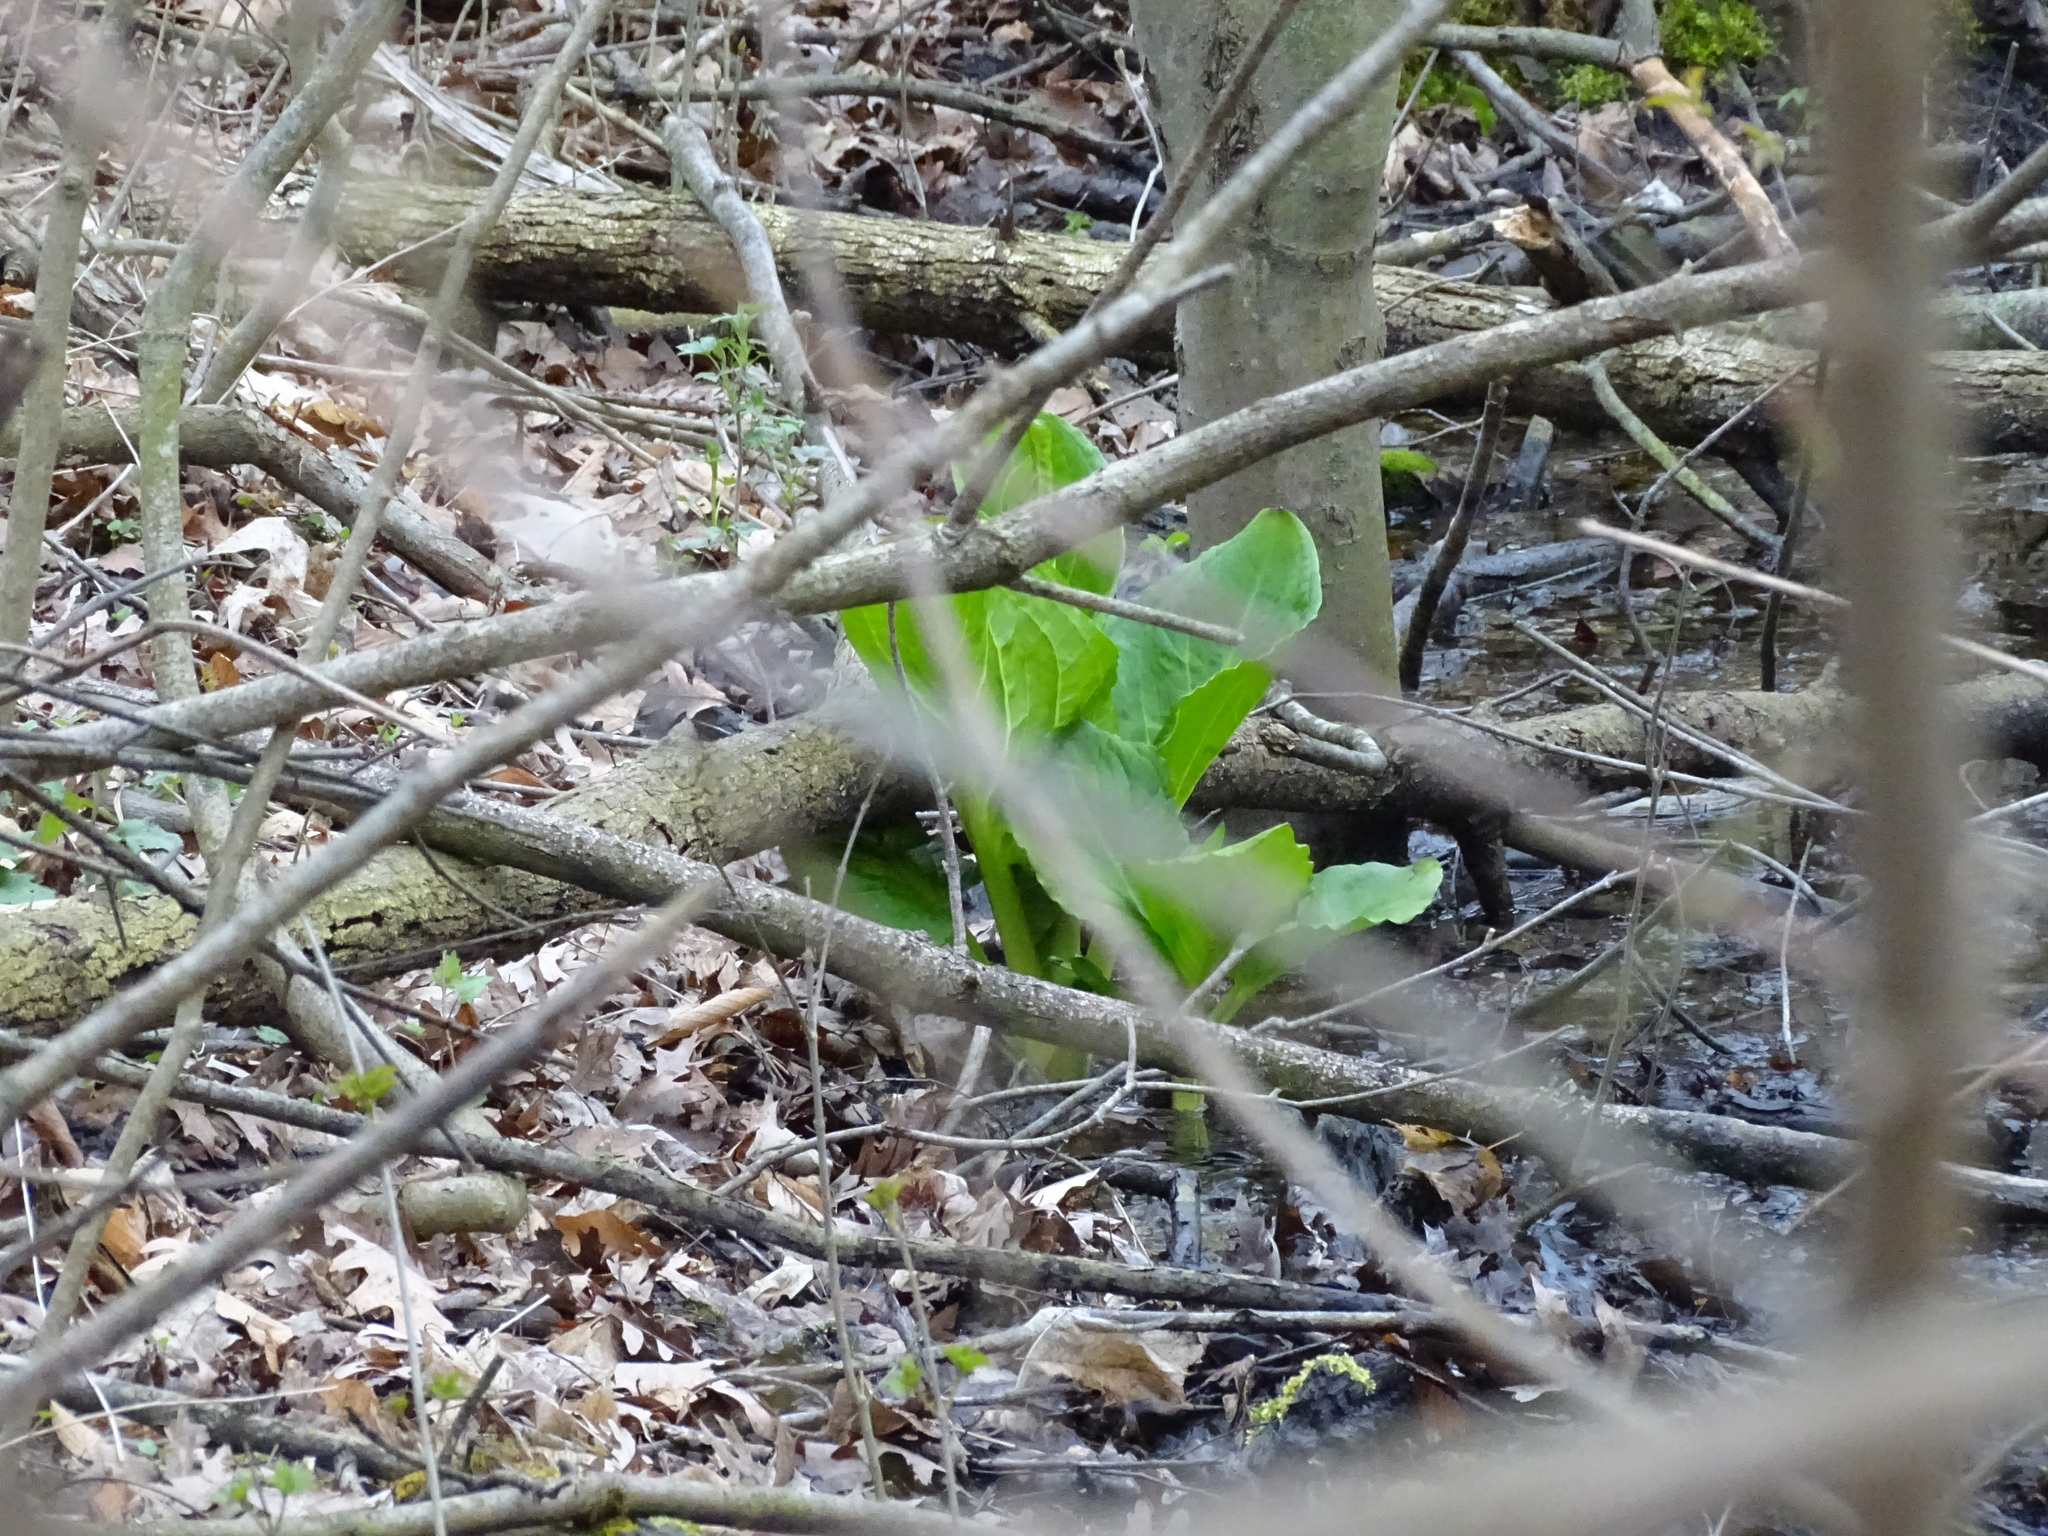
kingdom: Plantae
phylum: Tracheophyta
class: Liliopsida
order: Alismatales
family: Araceae
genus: Symplocarpus
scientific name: Symplocarpus foetidus
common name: Eastern skunk cabbage
